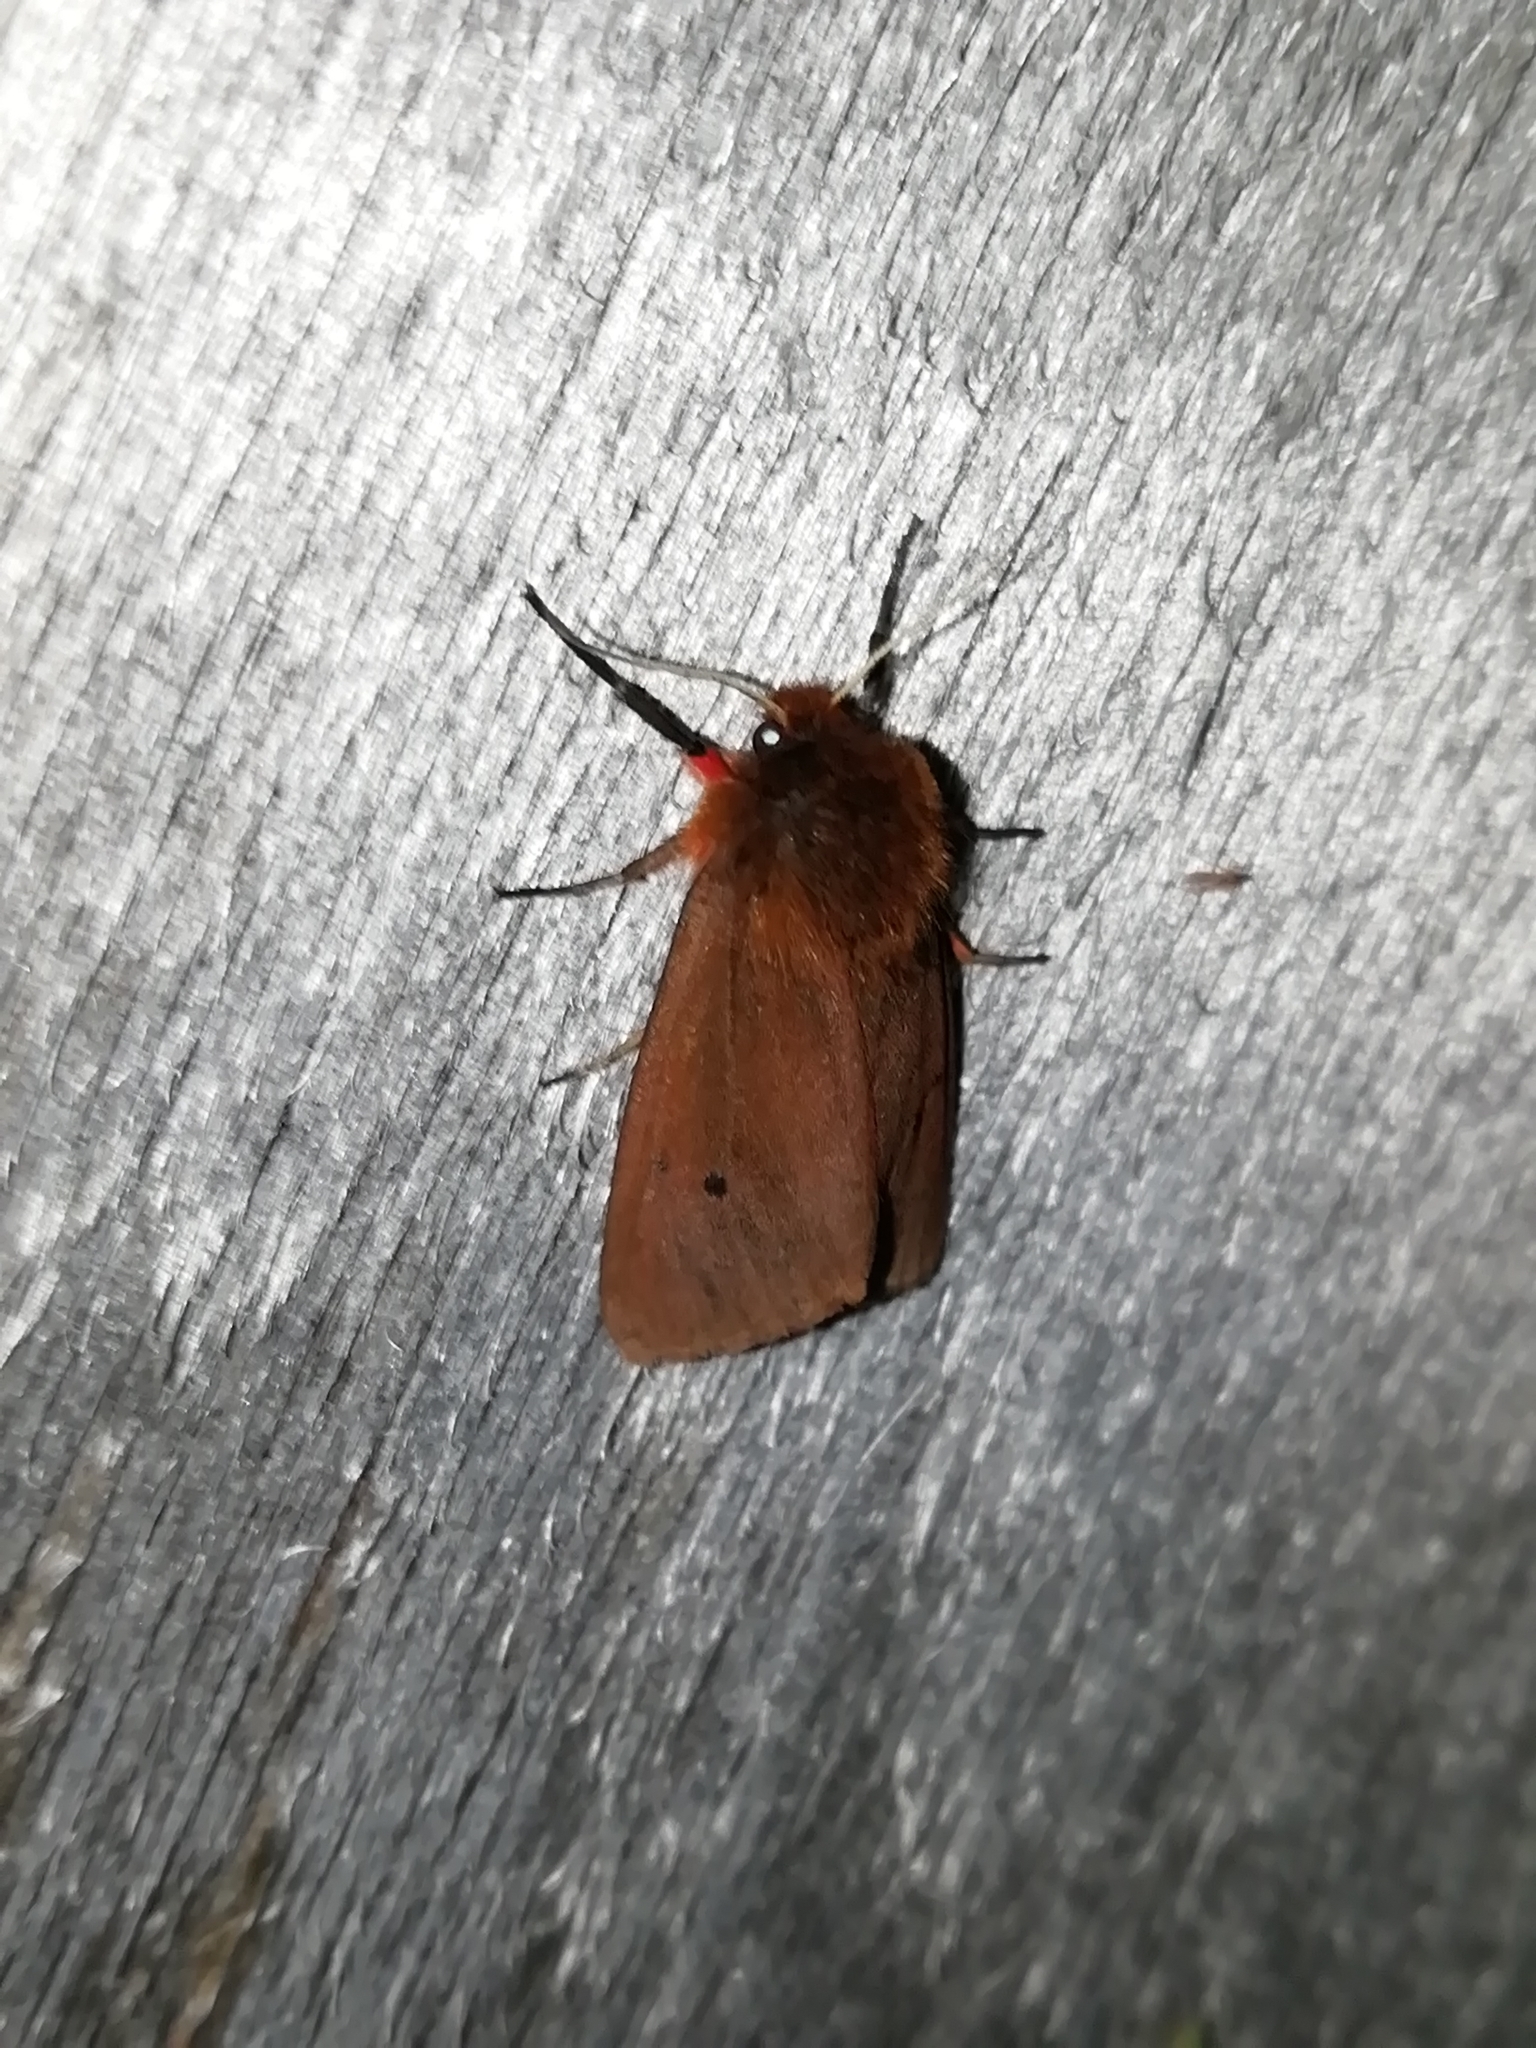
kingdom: Animalia
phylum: Arthropoda
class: Insecta
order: Lepidoptera
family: Erebidae
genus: Phragmatobia
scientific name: Phragmatobia fuliginosa
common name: Ruby tiger
